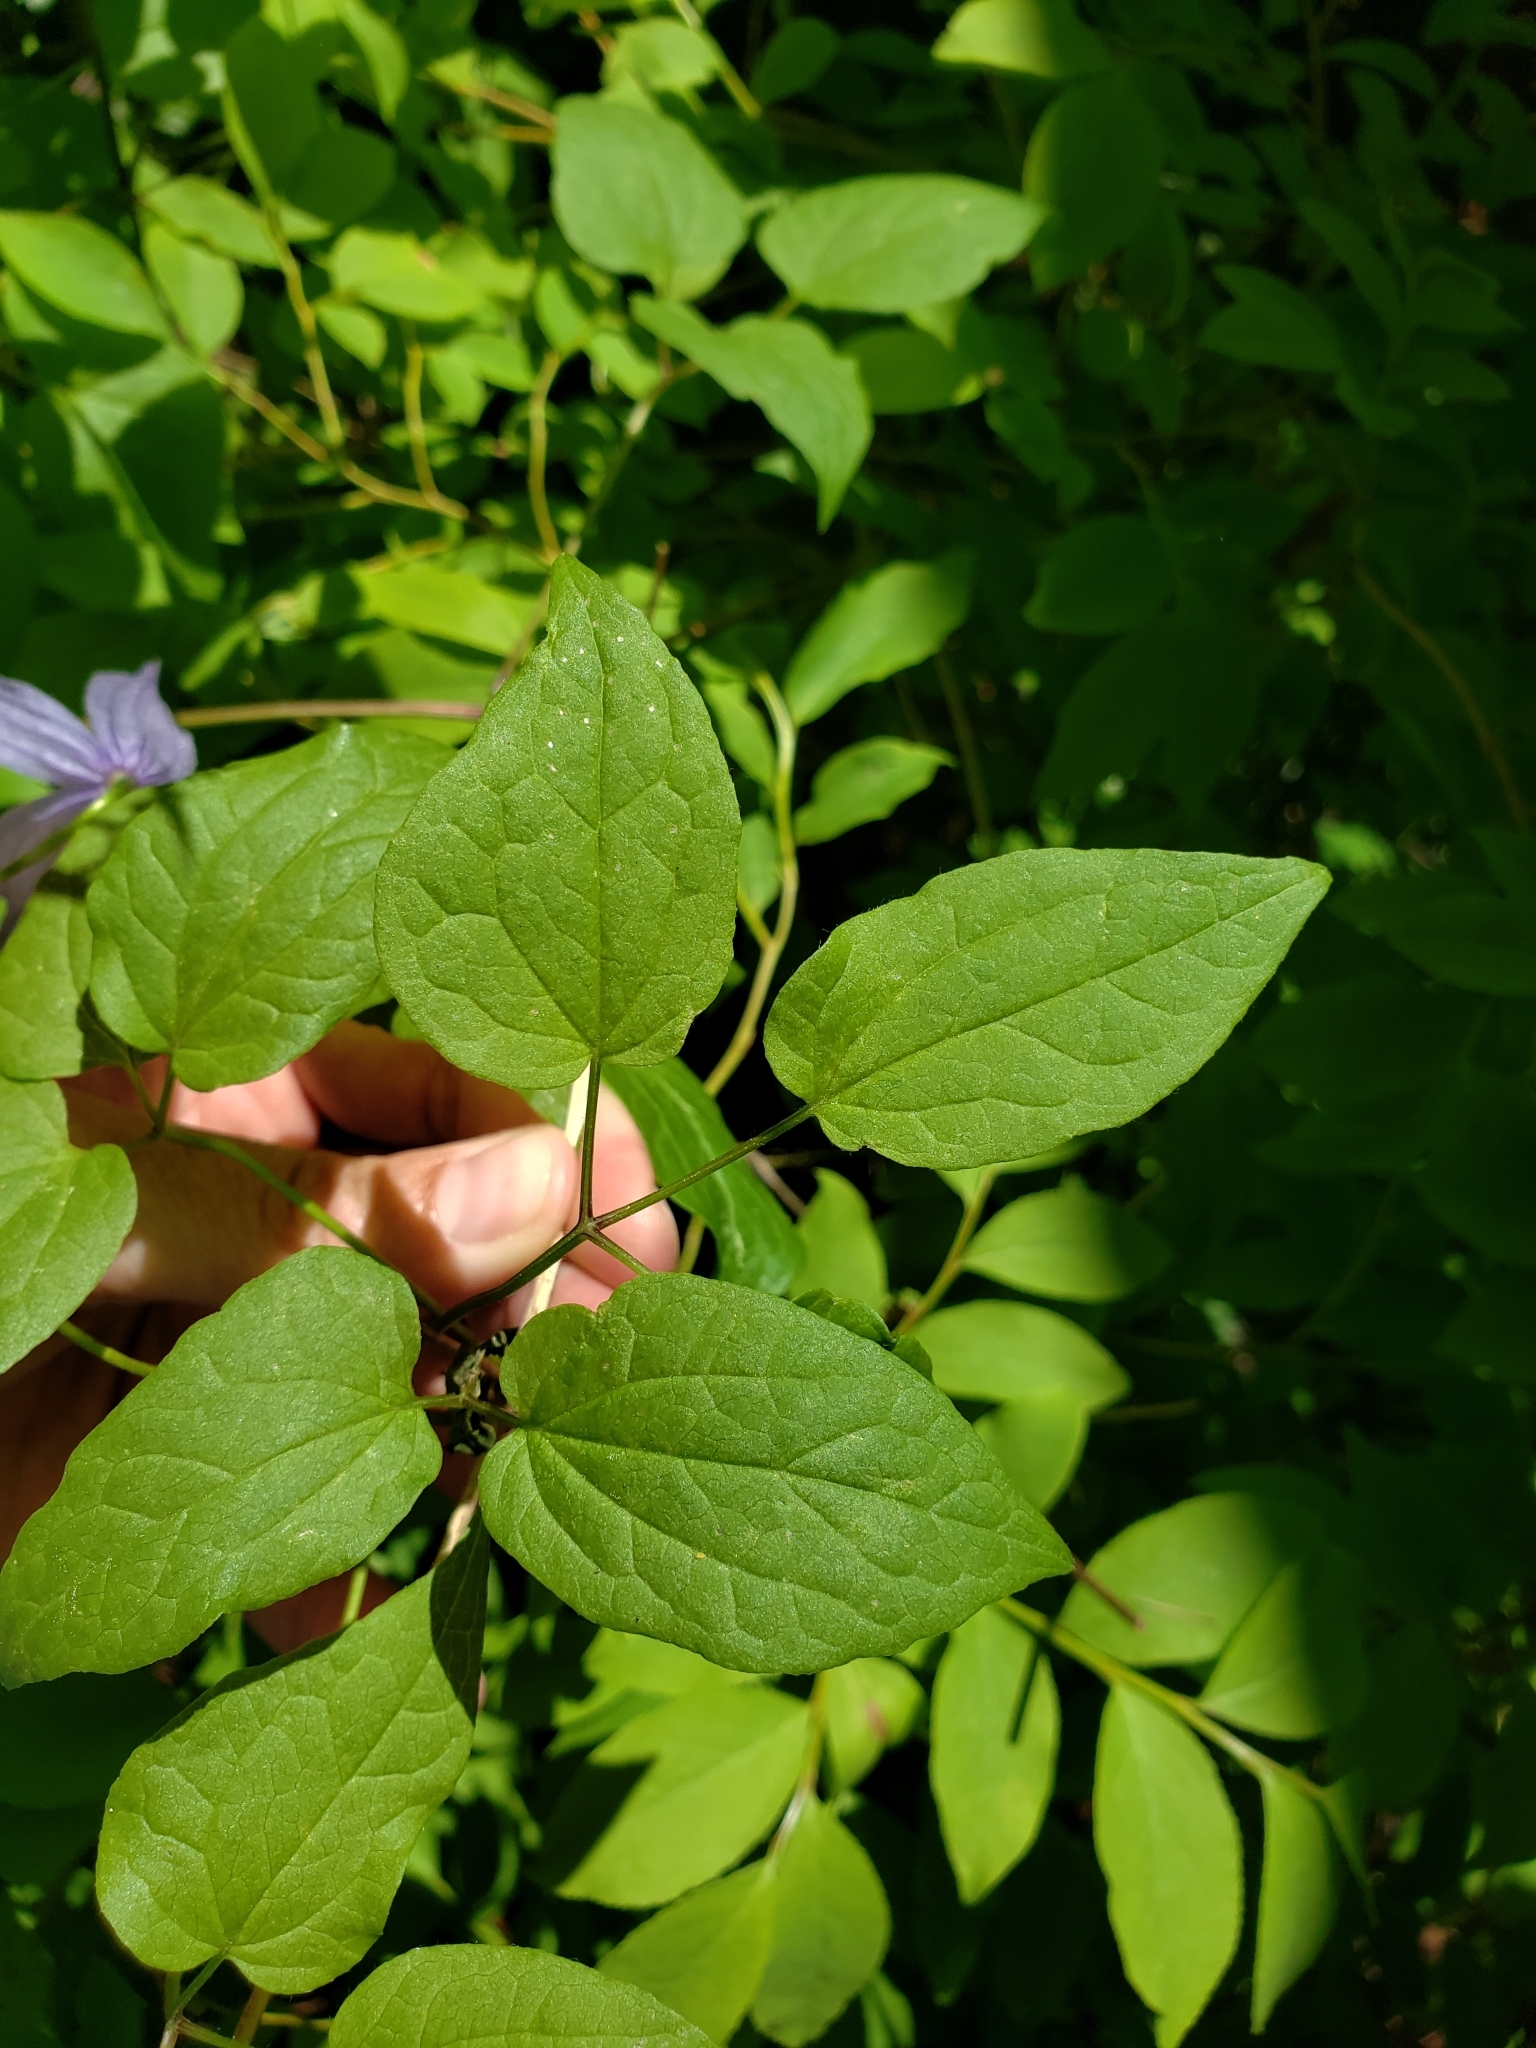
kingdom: Plantae
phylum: Tracheophyta
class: Magnoliopsida
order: Ranunculales
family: Ranunculaceae
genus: Clematis
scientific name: Clematis occidentalis
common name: Purple clematis
